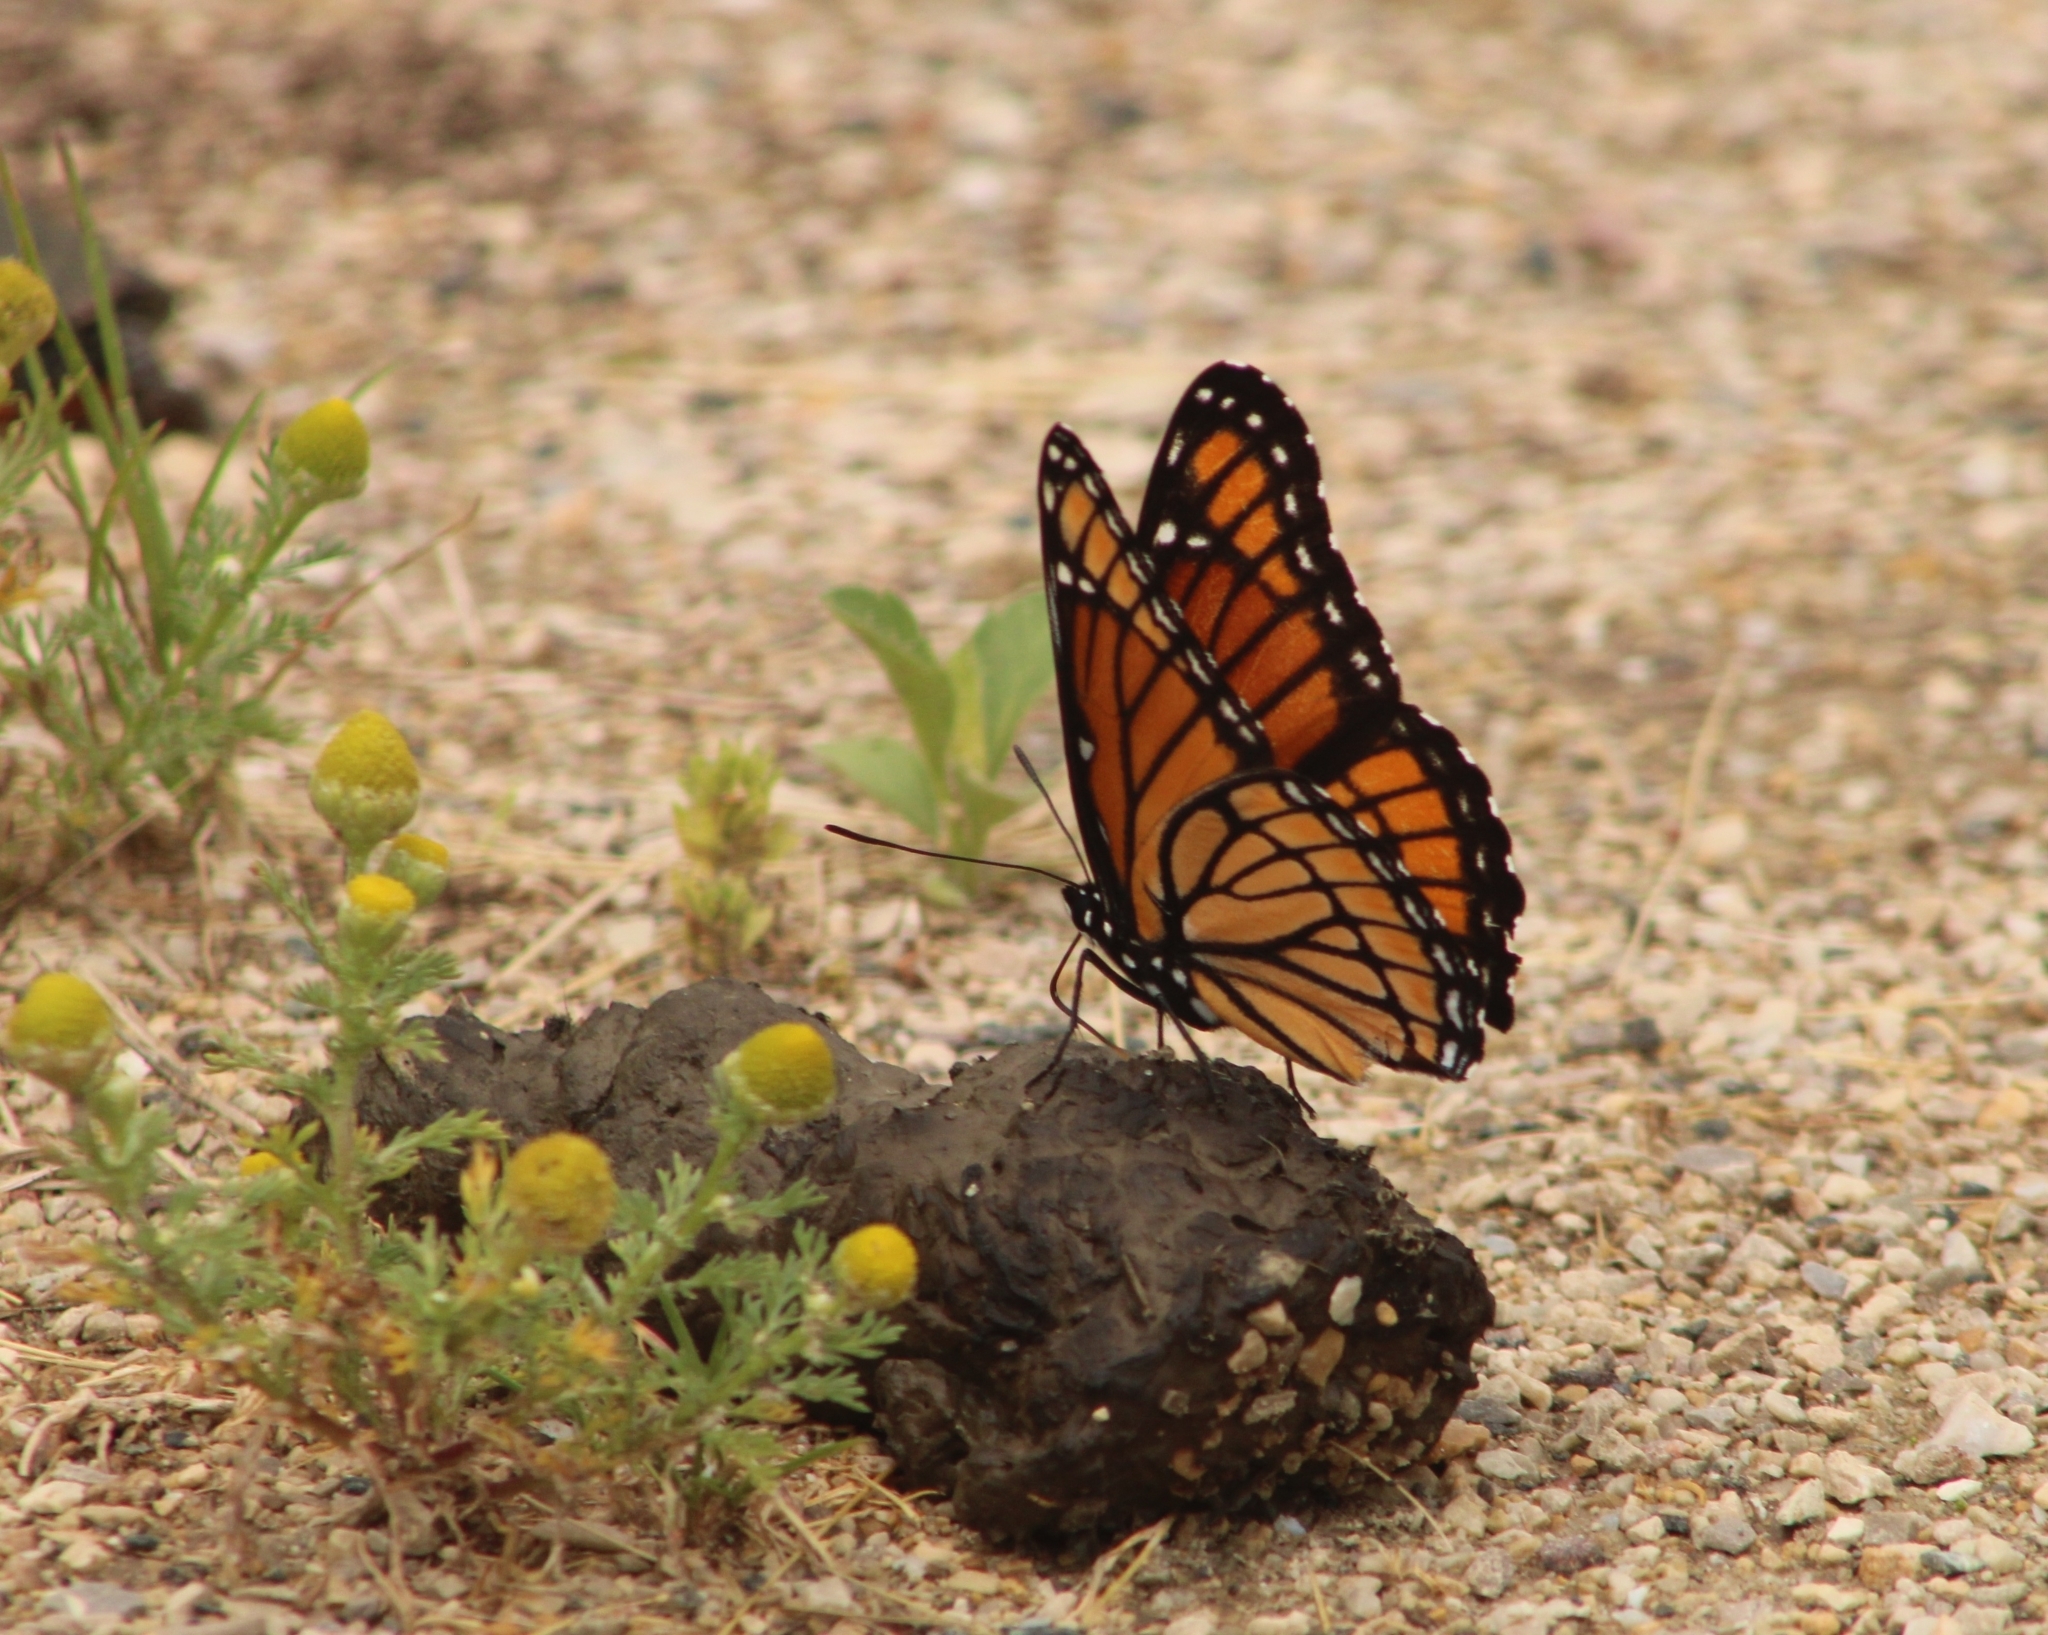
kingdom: Animalia
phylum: Arthropoda
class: Insecta
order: Lepidoptera
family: Nymphalidae
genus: Limenitis
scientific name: Limenitis archippus
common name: Viceroy
